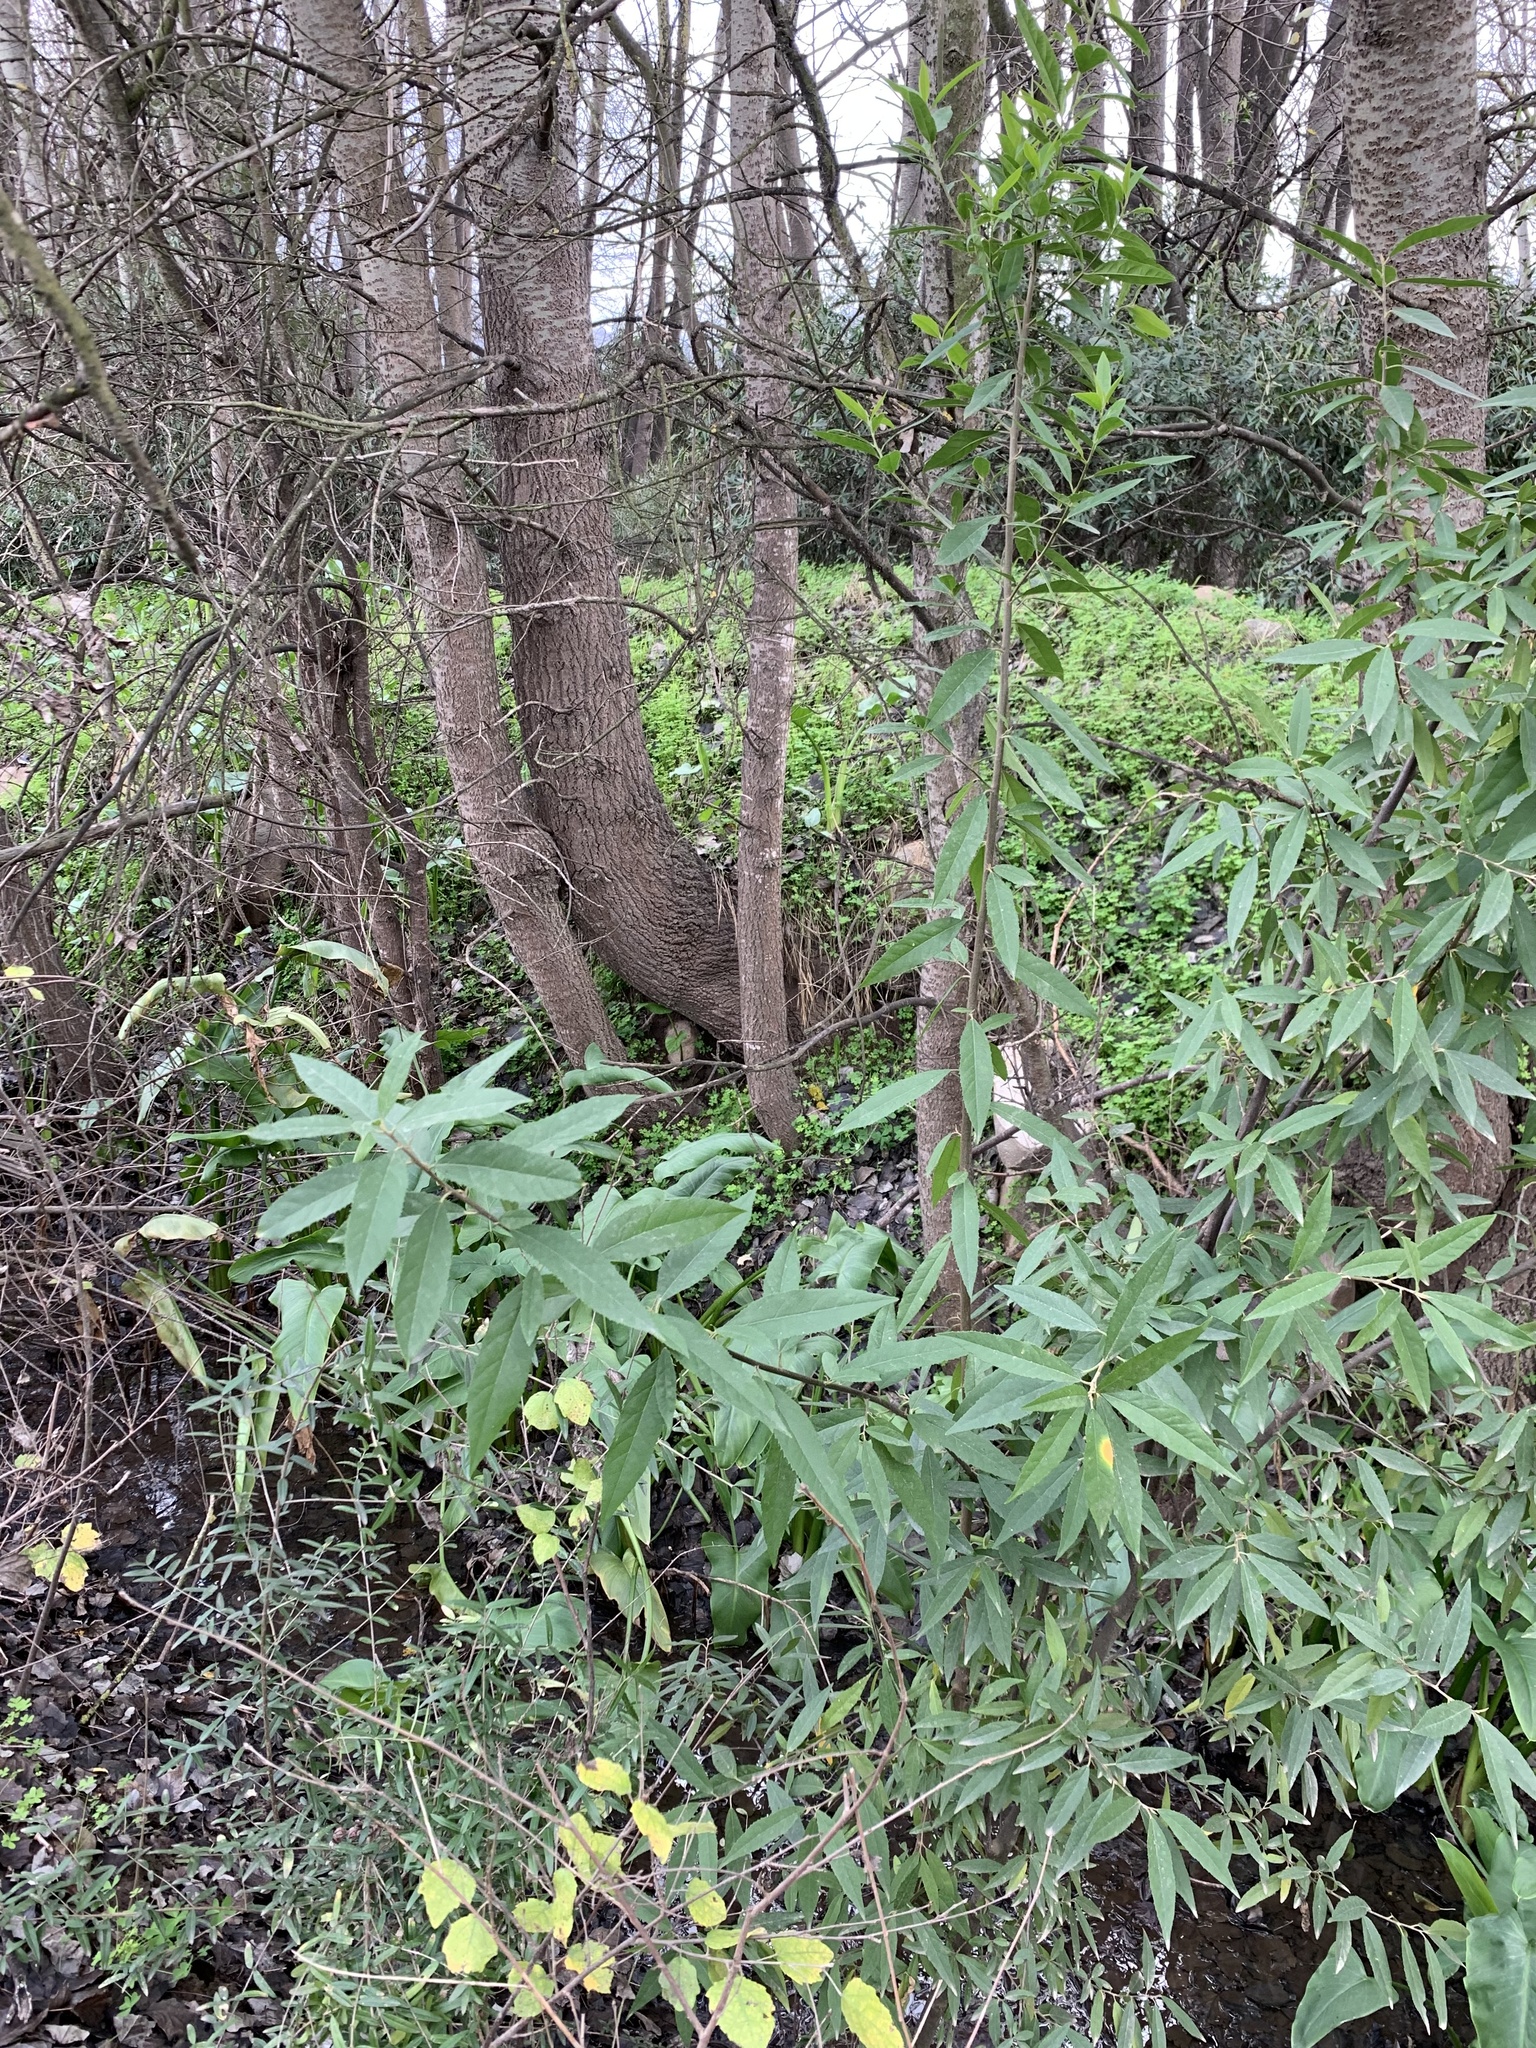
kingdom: Plantae
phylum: Tracheophyta
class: Magnoliopsida
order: Malpighiales
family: Achariaceae
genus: Kiggelaria
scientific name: Kiggelaria africana
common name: Wild peach
